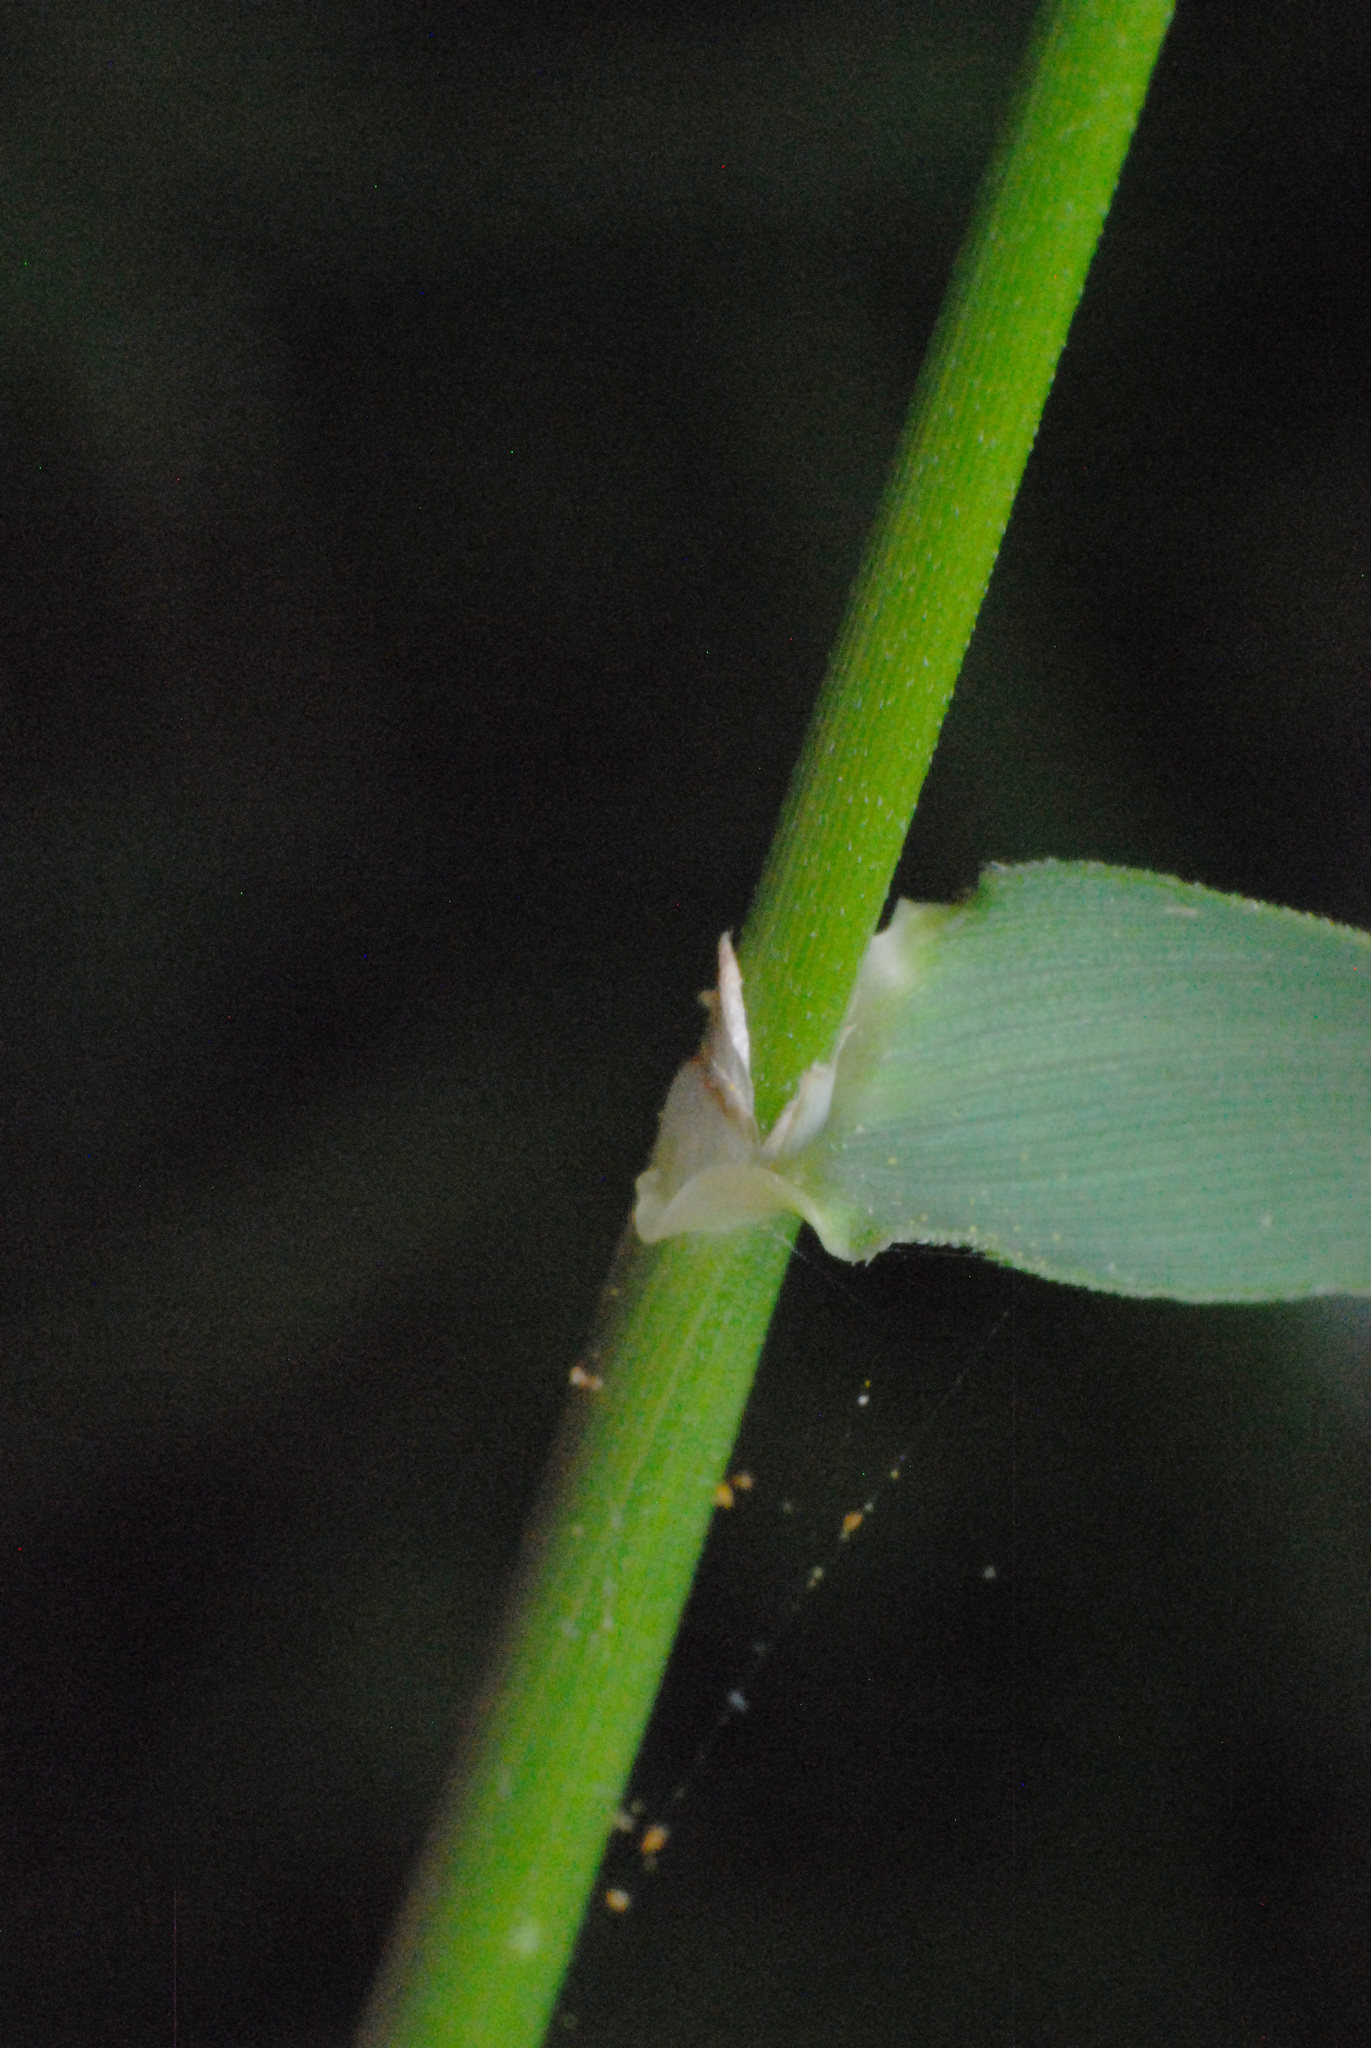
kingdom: Plantae
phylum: Tracheophyta
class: Liliopsida
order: Poales
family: Poaceae
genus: Echinopogon
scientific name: Echinopogon ovatus
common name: Hedgehog-grass
